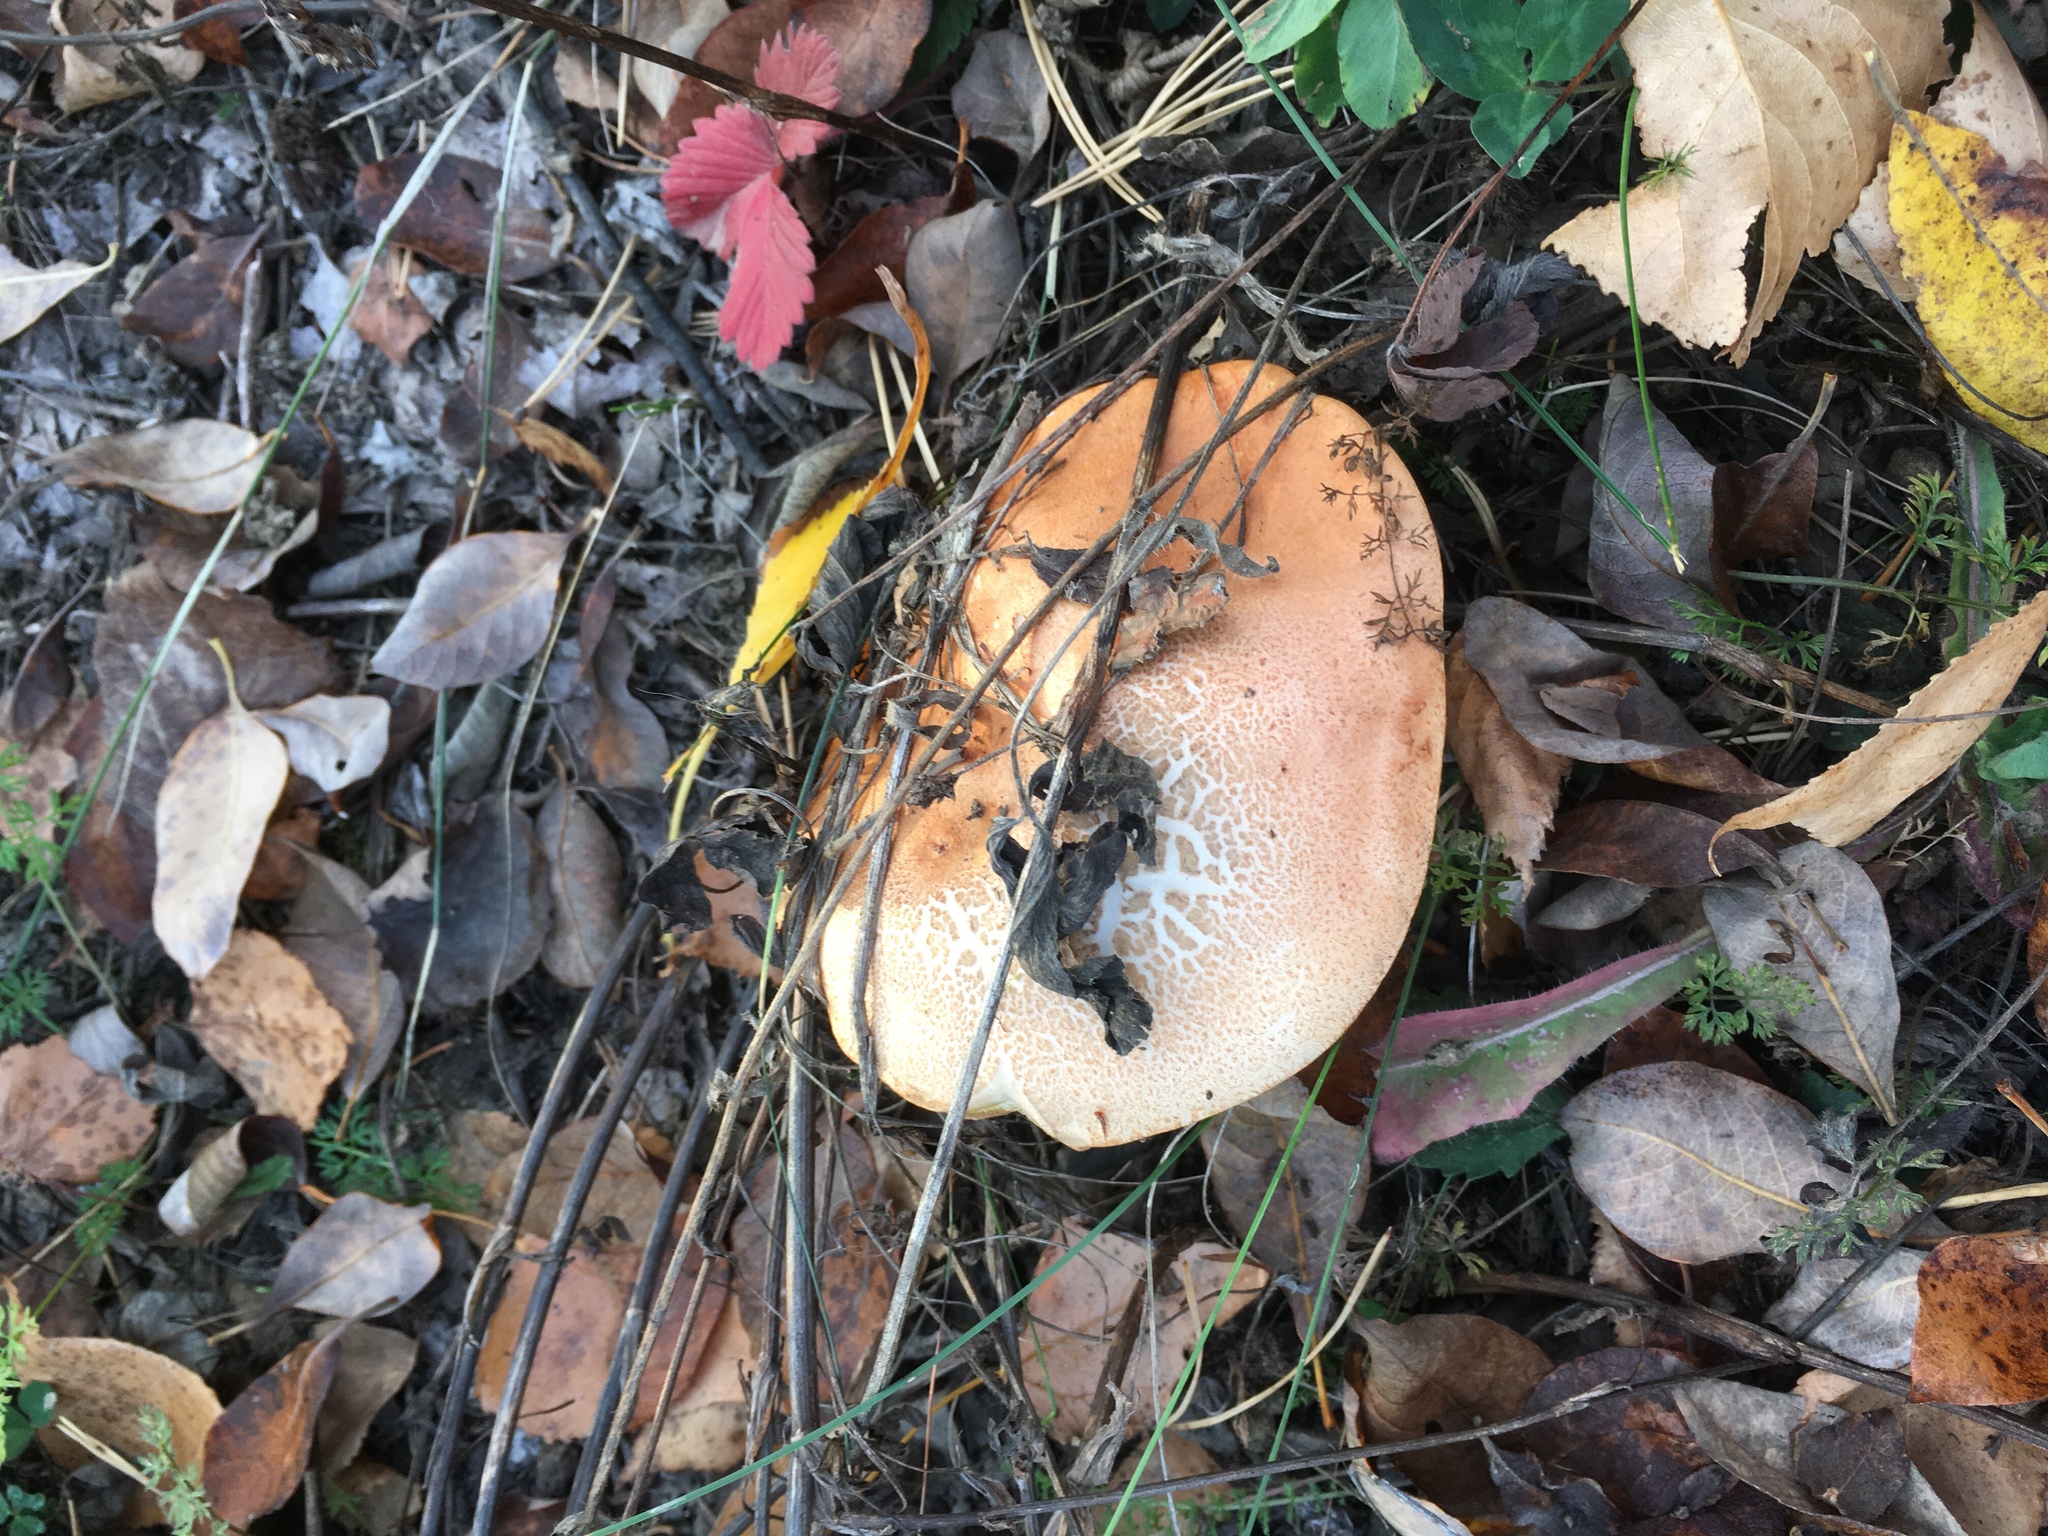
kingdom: Fungi
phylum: Basidiomycota
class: Agaricomycetes
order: Boletales
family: Boletaceae
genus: Leccinum
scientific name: Leccinum aurantiacum
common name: Orange bolete
